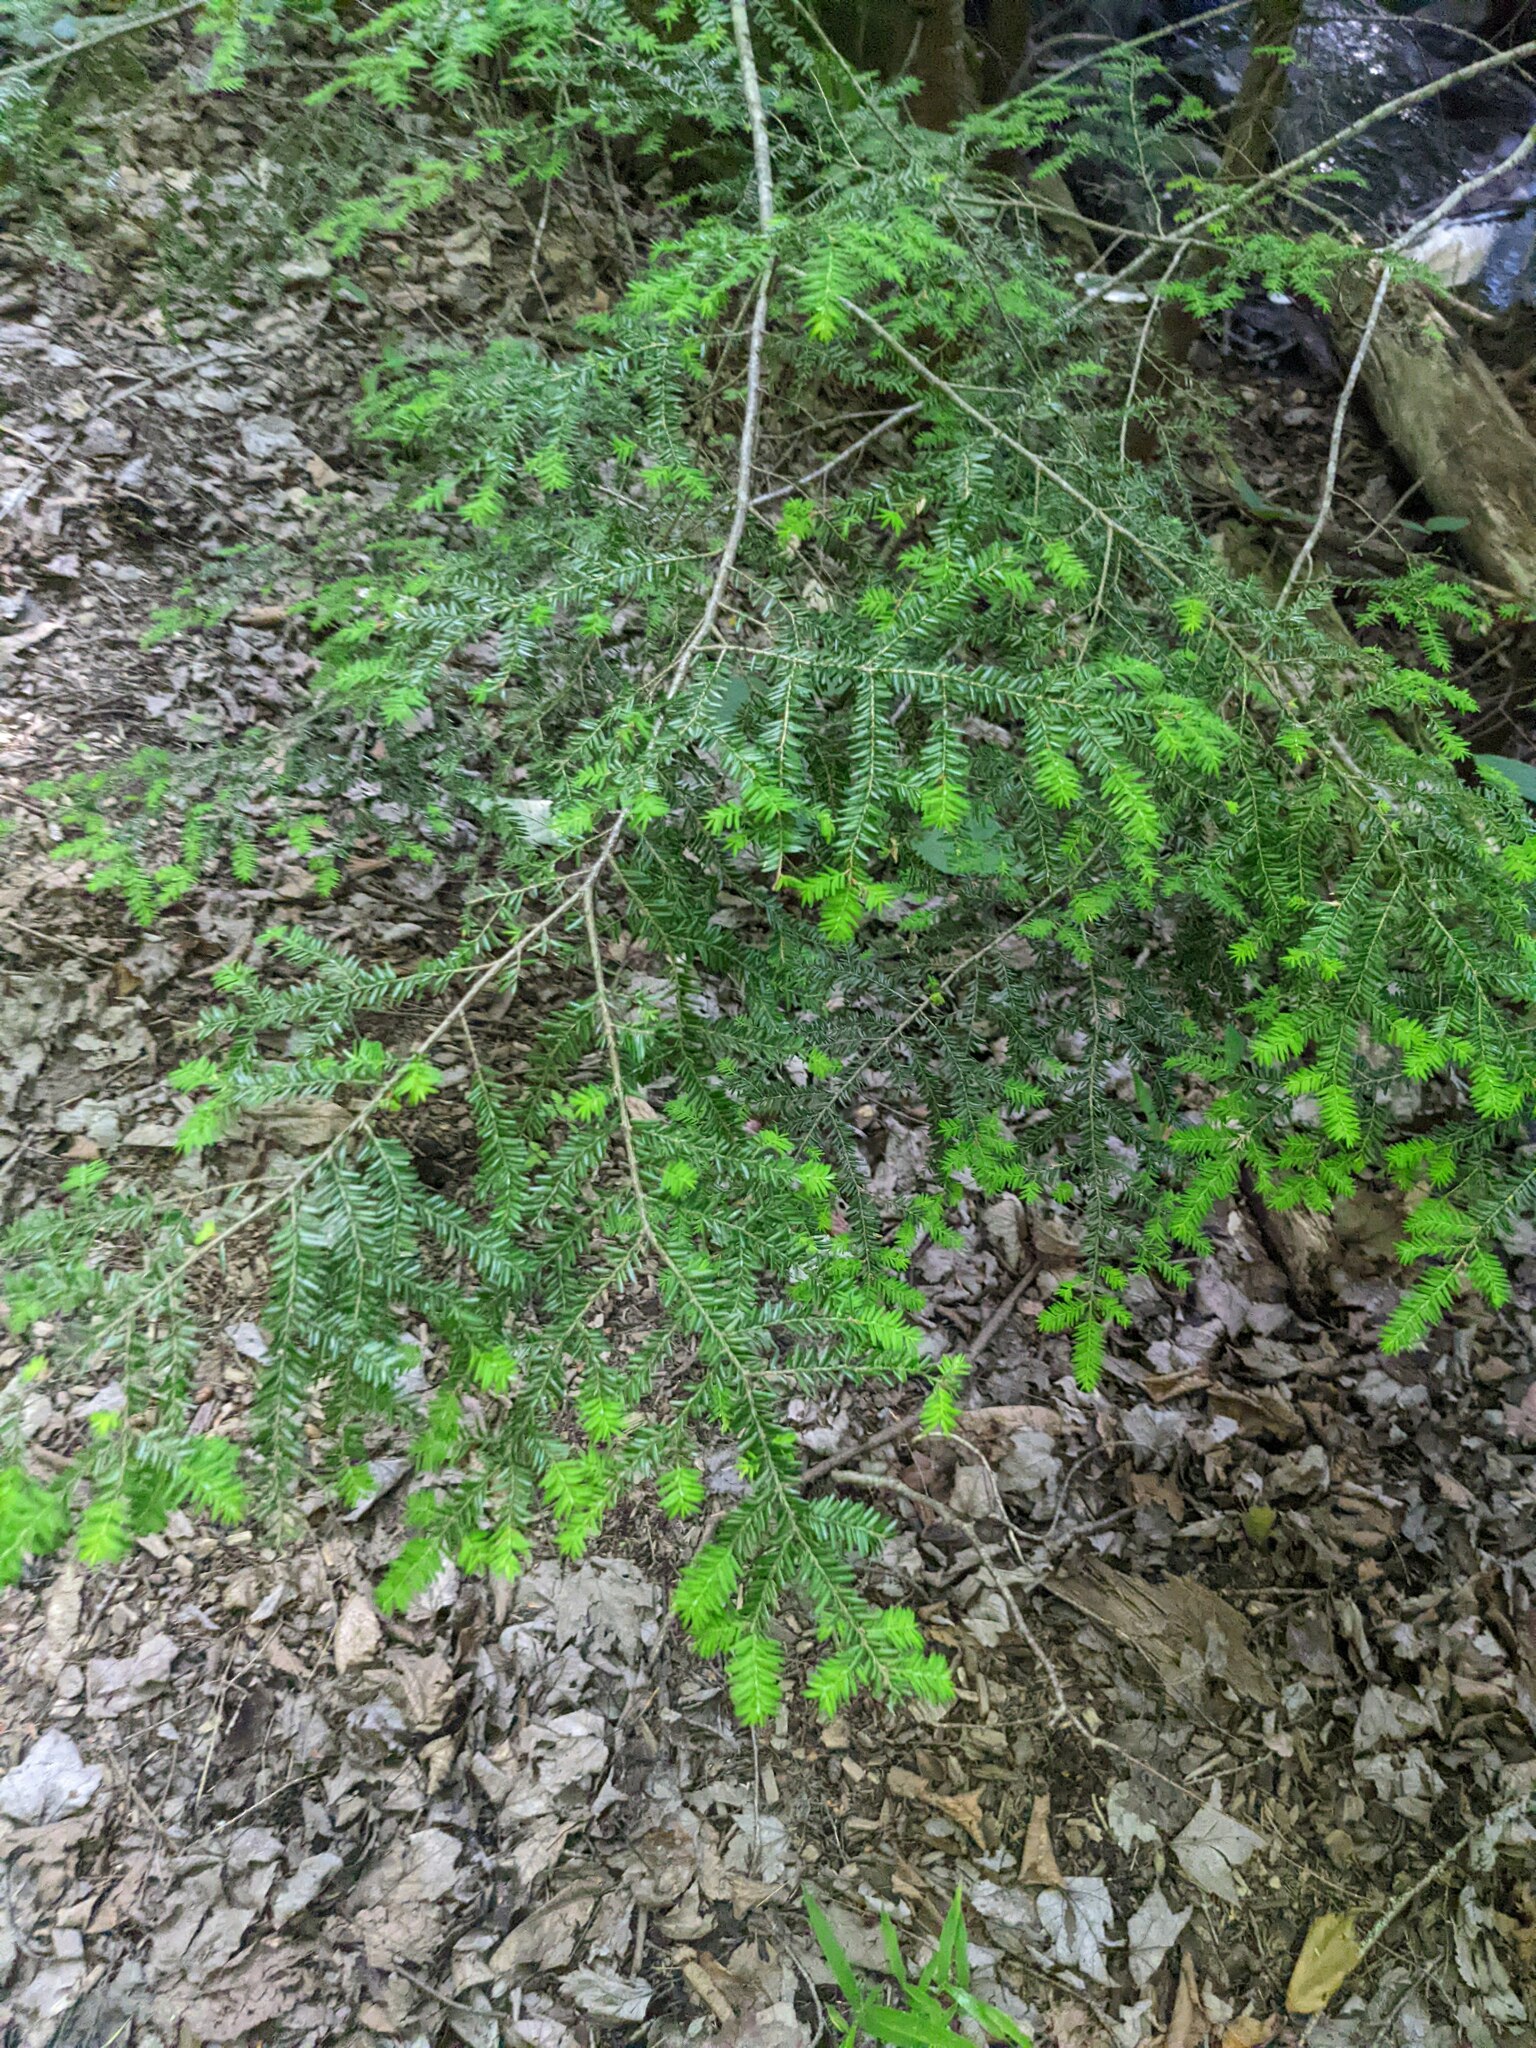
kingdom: Plantae
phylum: Tracheophyta
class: Pinopsida
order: Pinales
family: Pinaceae
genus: Tsuga
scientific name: Tsuga canadensis
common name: Eastern hemlock
